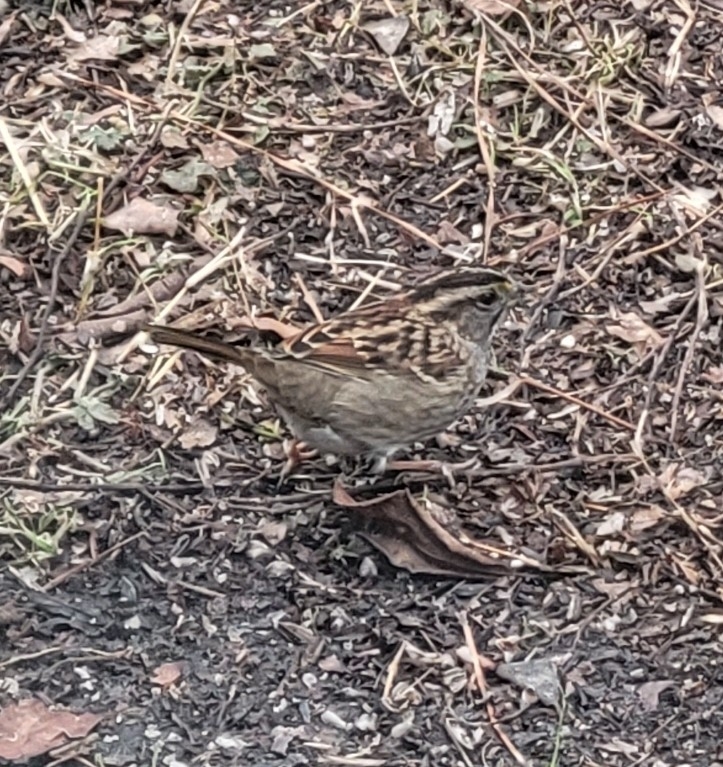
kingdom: Animalia
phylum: Chordata
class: Aves
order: Passeriformes
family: Passerellidae
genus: Zonotrichia
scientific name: Zonotrichia albicollis
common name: White-throated sparrow
